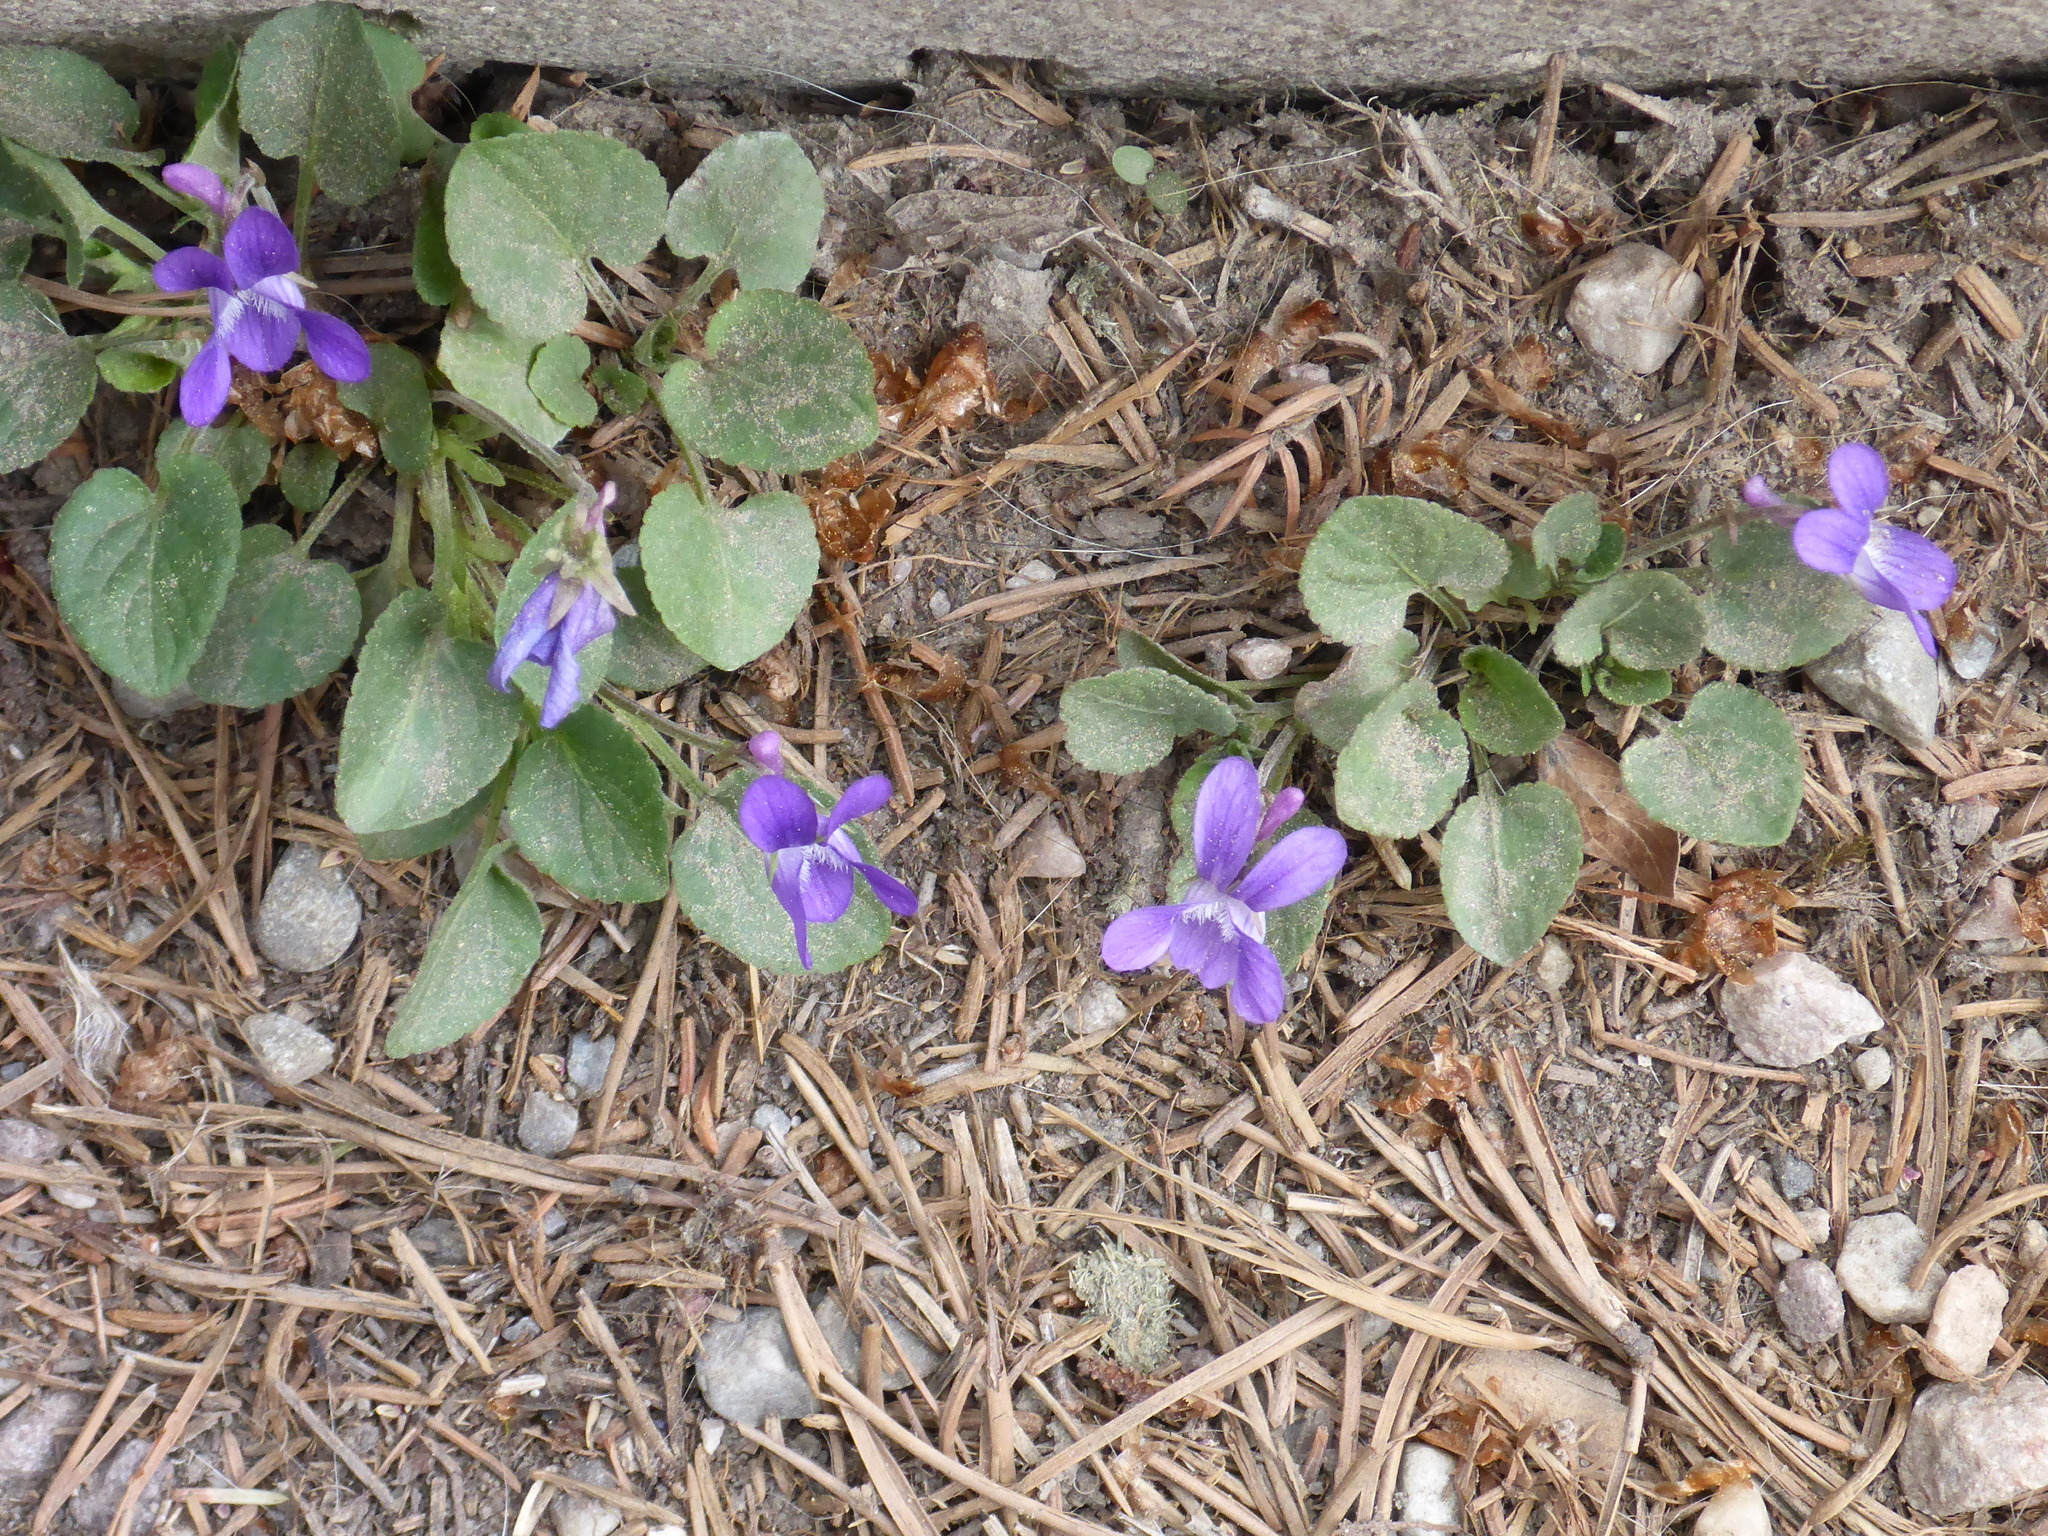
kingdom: Plantae
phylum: Tracheophyta
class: Magnoliopsida
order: Malpighiales
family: Violaceae
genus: Viola
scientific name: Viola adunca
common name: Sand violet
